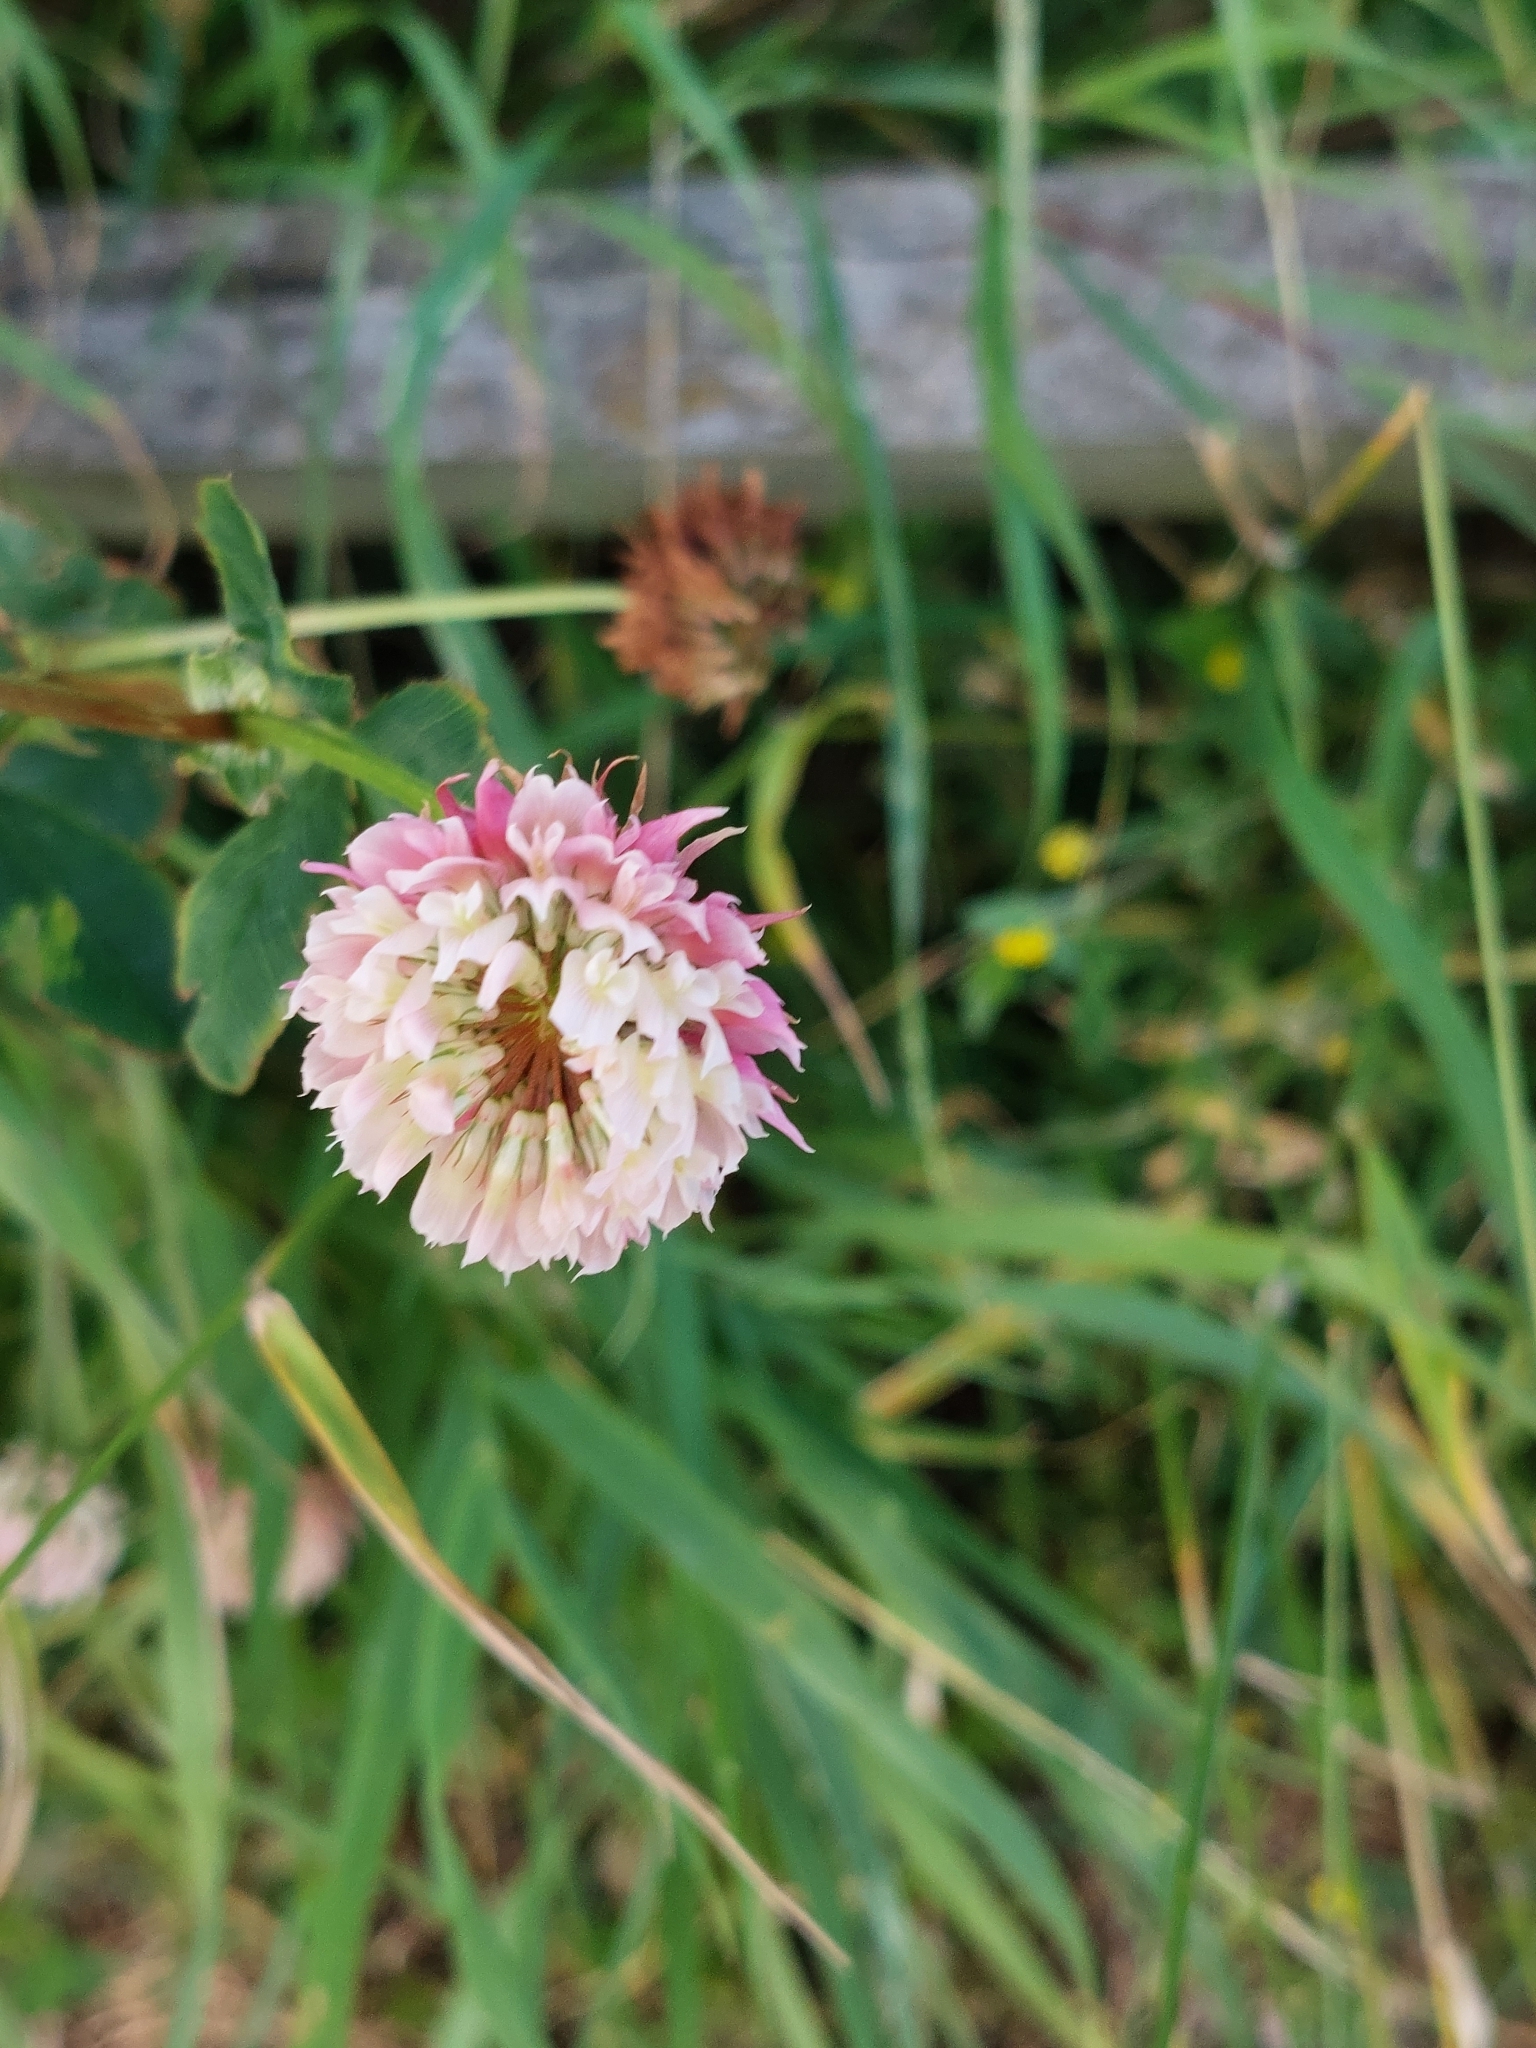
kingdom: Plantae
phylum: Tracheophyta
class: Magnoliopsida
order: Fabales
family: Fabaceae
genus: Trifolium
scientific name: Trifolium hybridum
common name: Alsike clover
